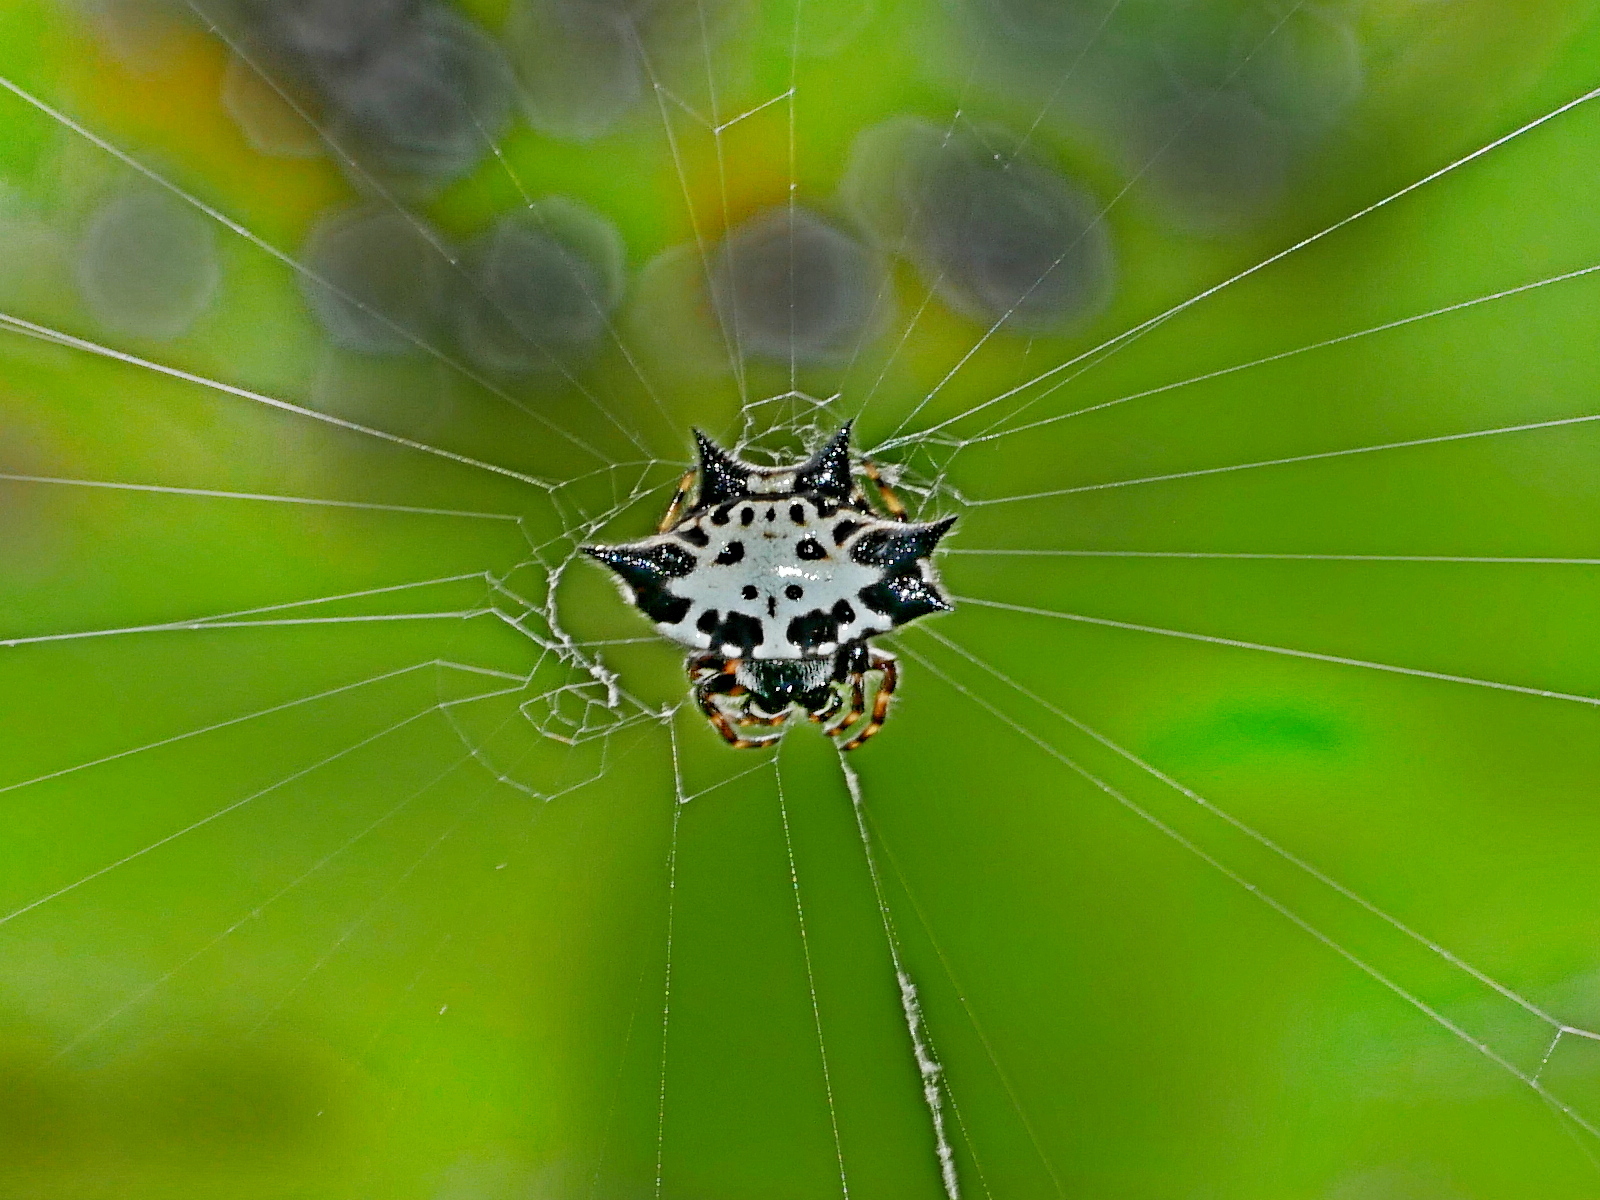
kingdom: Animalia
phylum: Arthropoda
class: Arachnida
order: Araneae
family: Araneidae
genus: Gasteracantha
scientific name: Gasteracantha kuhli
